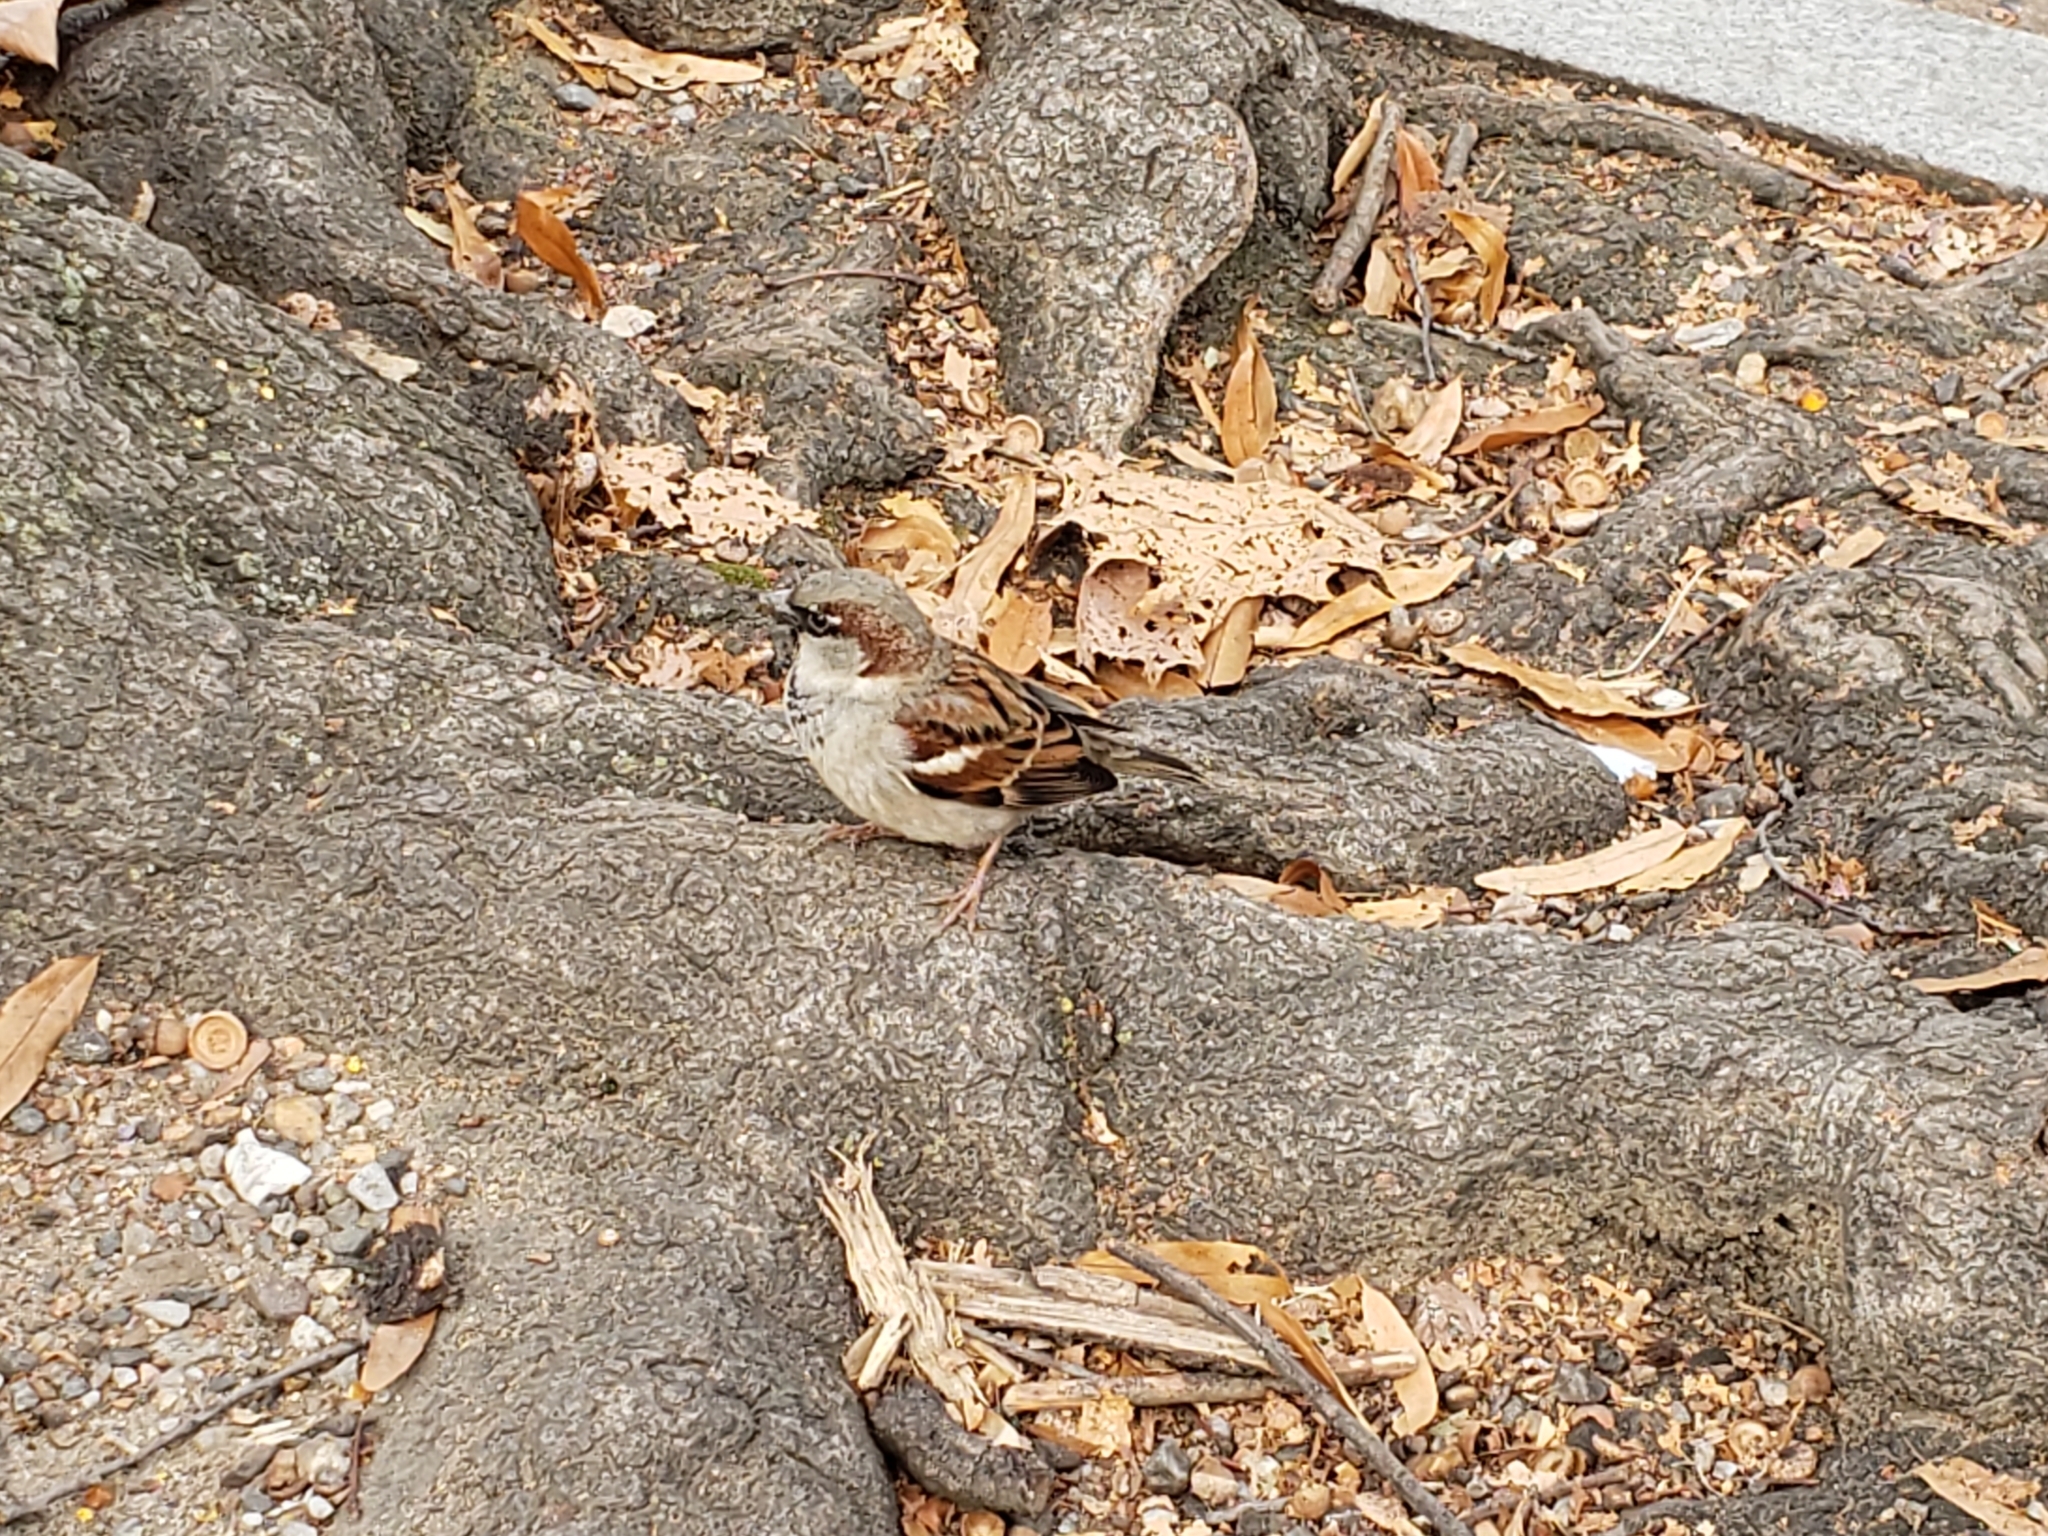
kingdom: Animalia
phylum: Chordata
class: Aves
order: Passeriformes
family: Passeridae
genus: Passer
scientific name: Passer domesticus
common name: House sparrow
